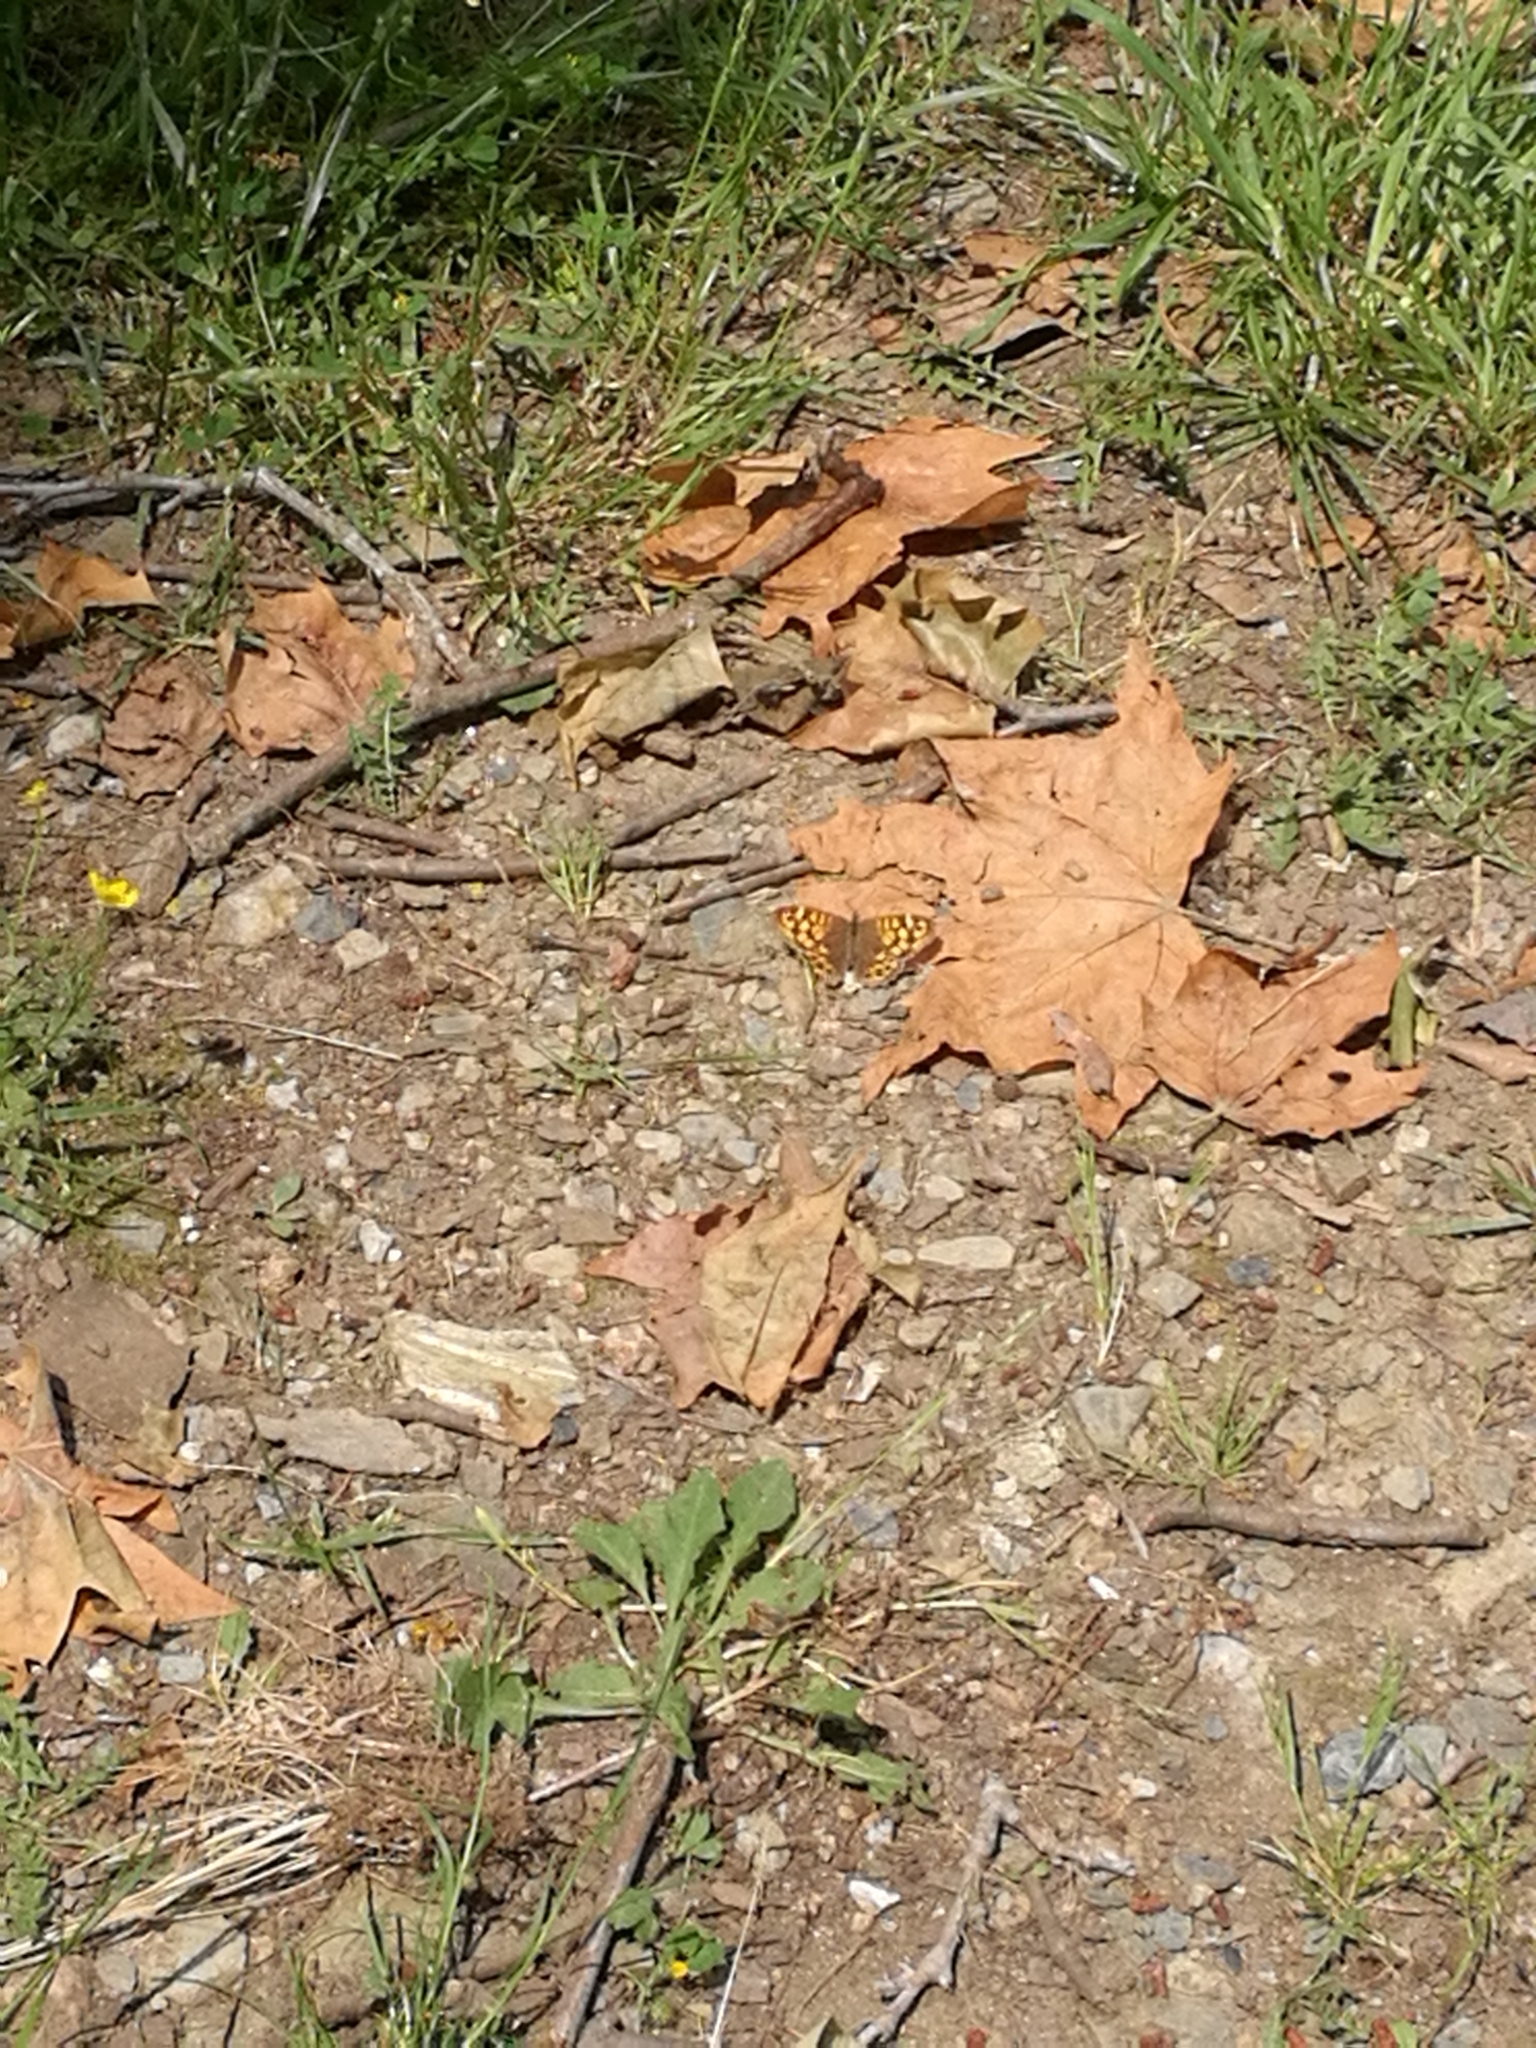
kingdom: Animalia
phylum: Arthropoda
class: Insecta
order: Lepidoptera
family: Nymphalidae
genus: Pararge
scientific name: Pararge aegeria
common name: Speckled wood
